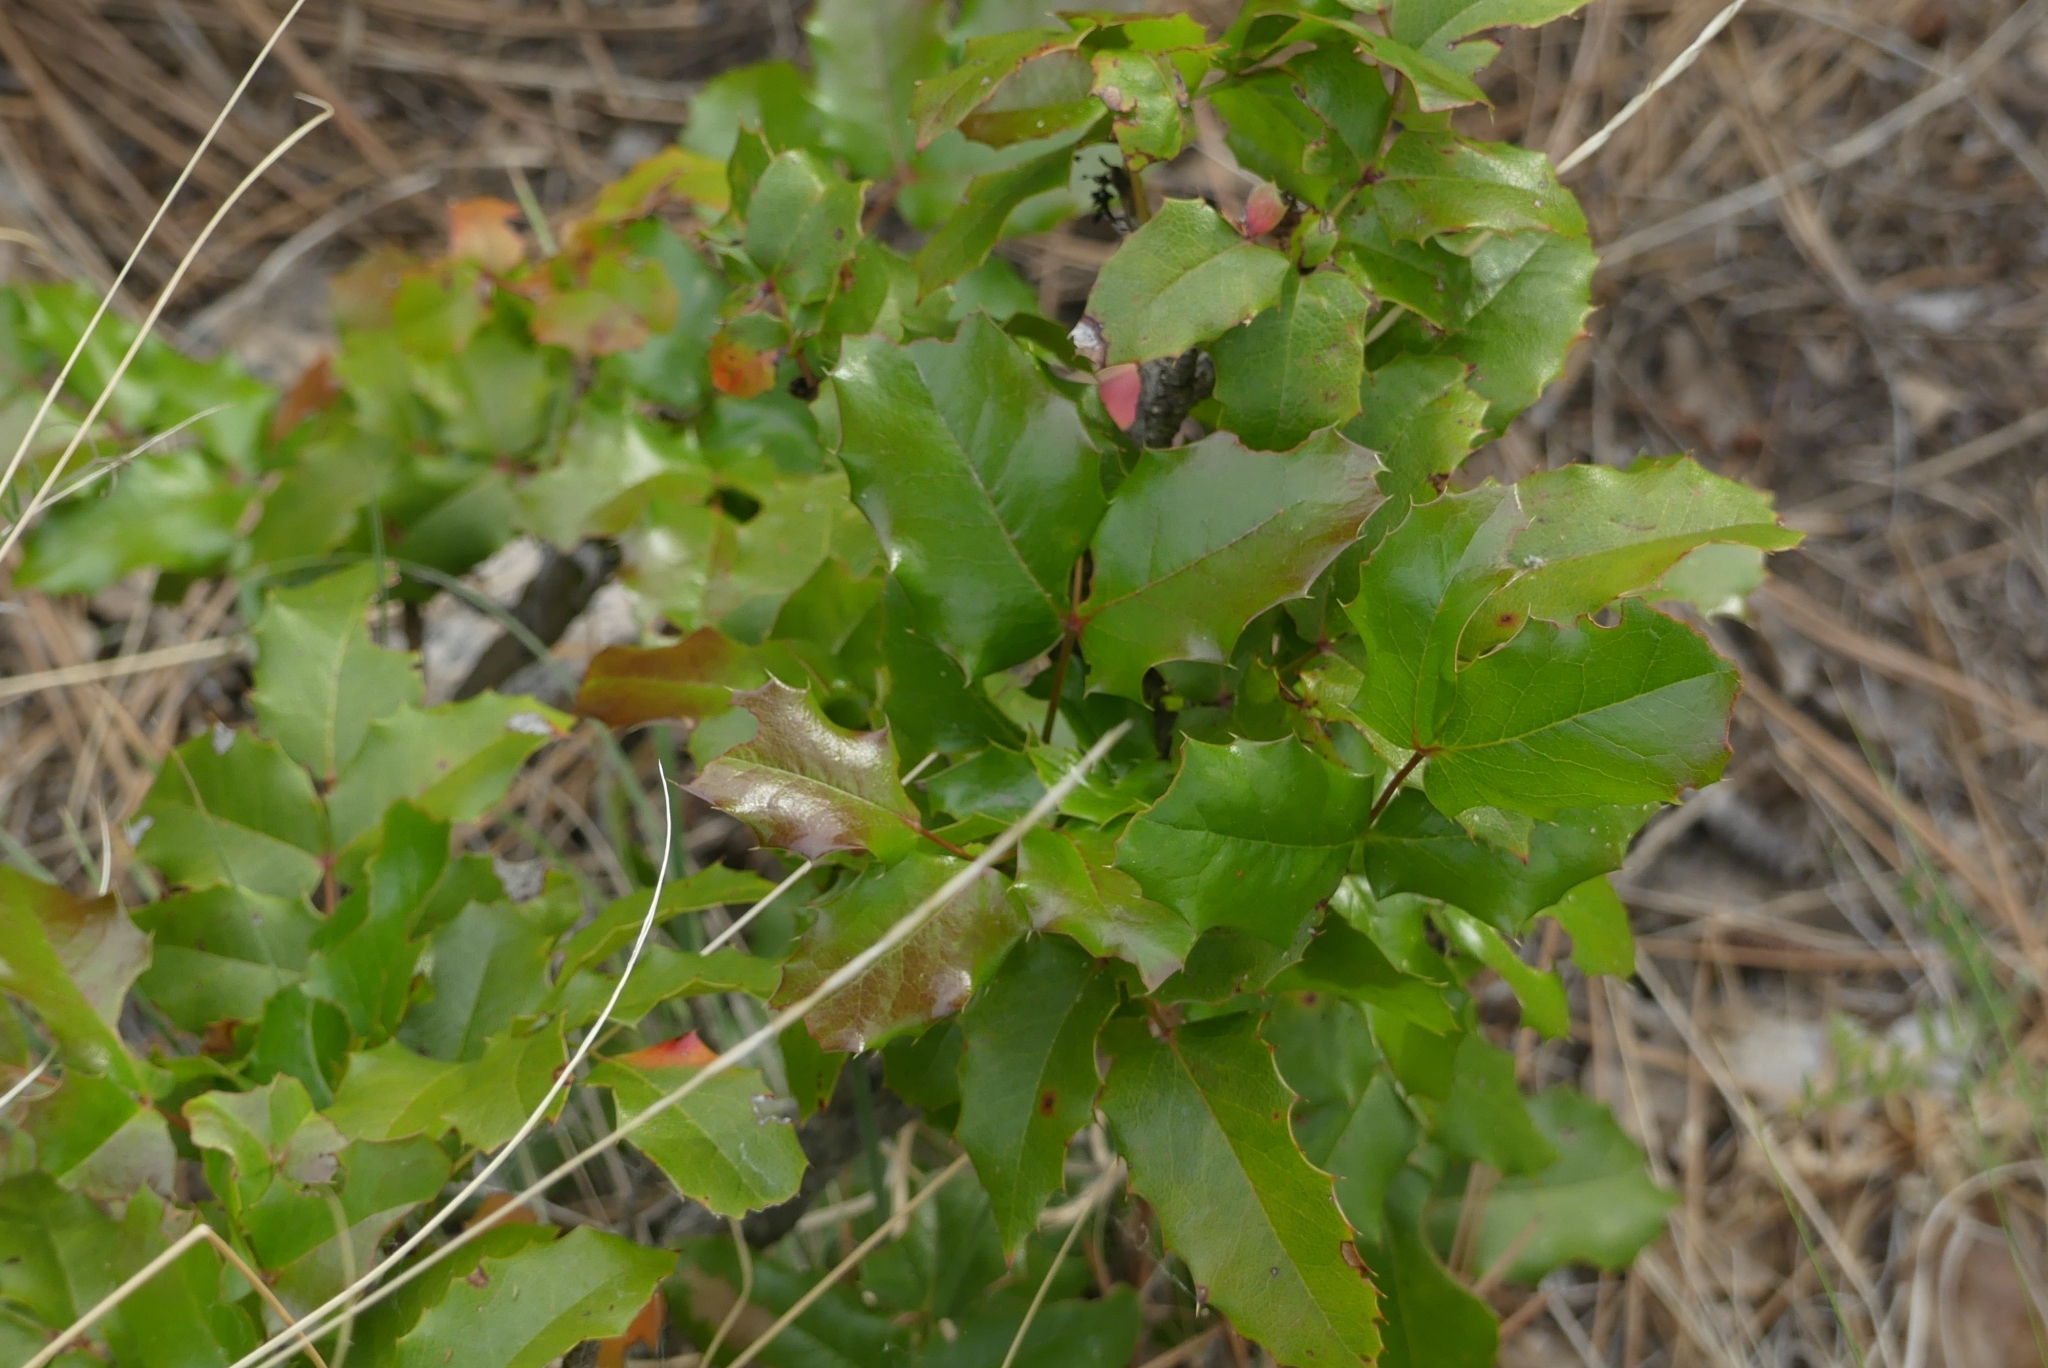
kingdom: Plantae
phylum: Tracheophyta
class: Magnoliopsida
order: Ranunculales
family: Berberidaceae
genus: Mahonia
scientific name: Mahonia aquifolium
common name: Oregon-grape
